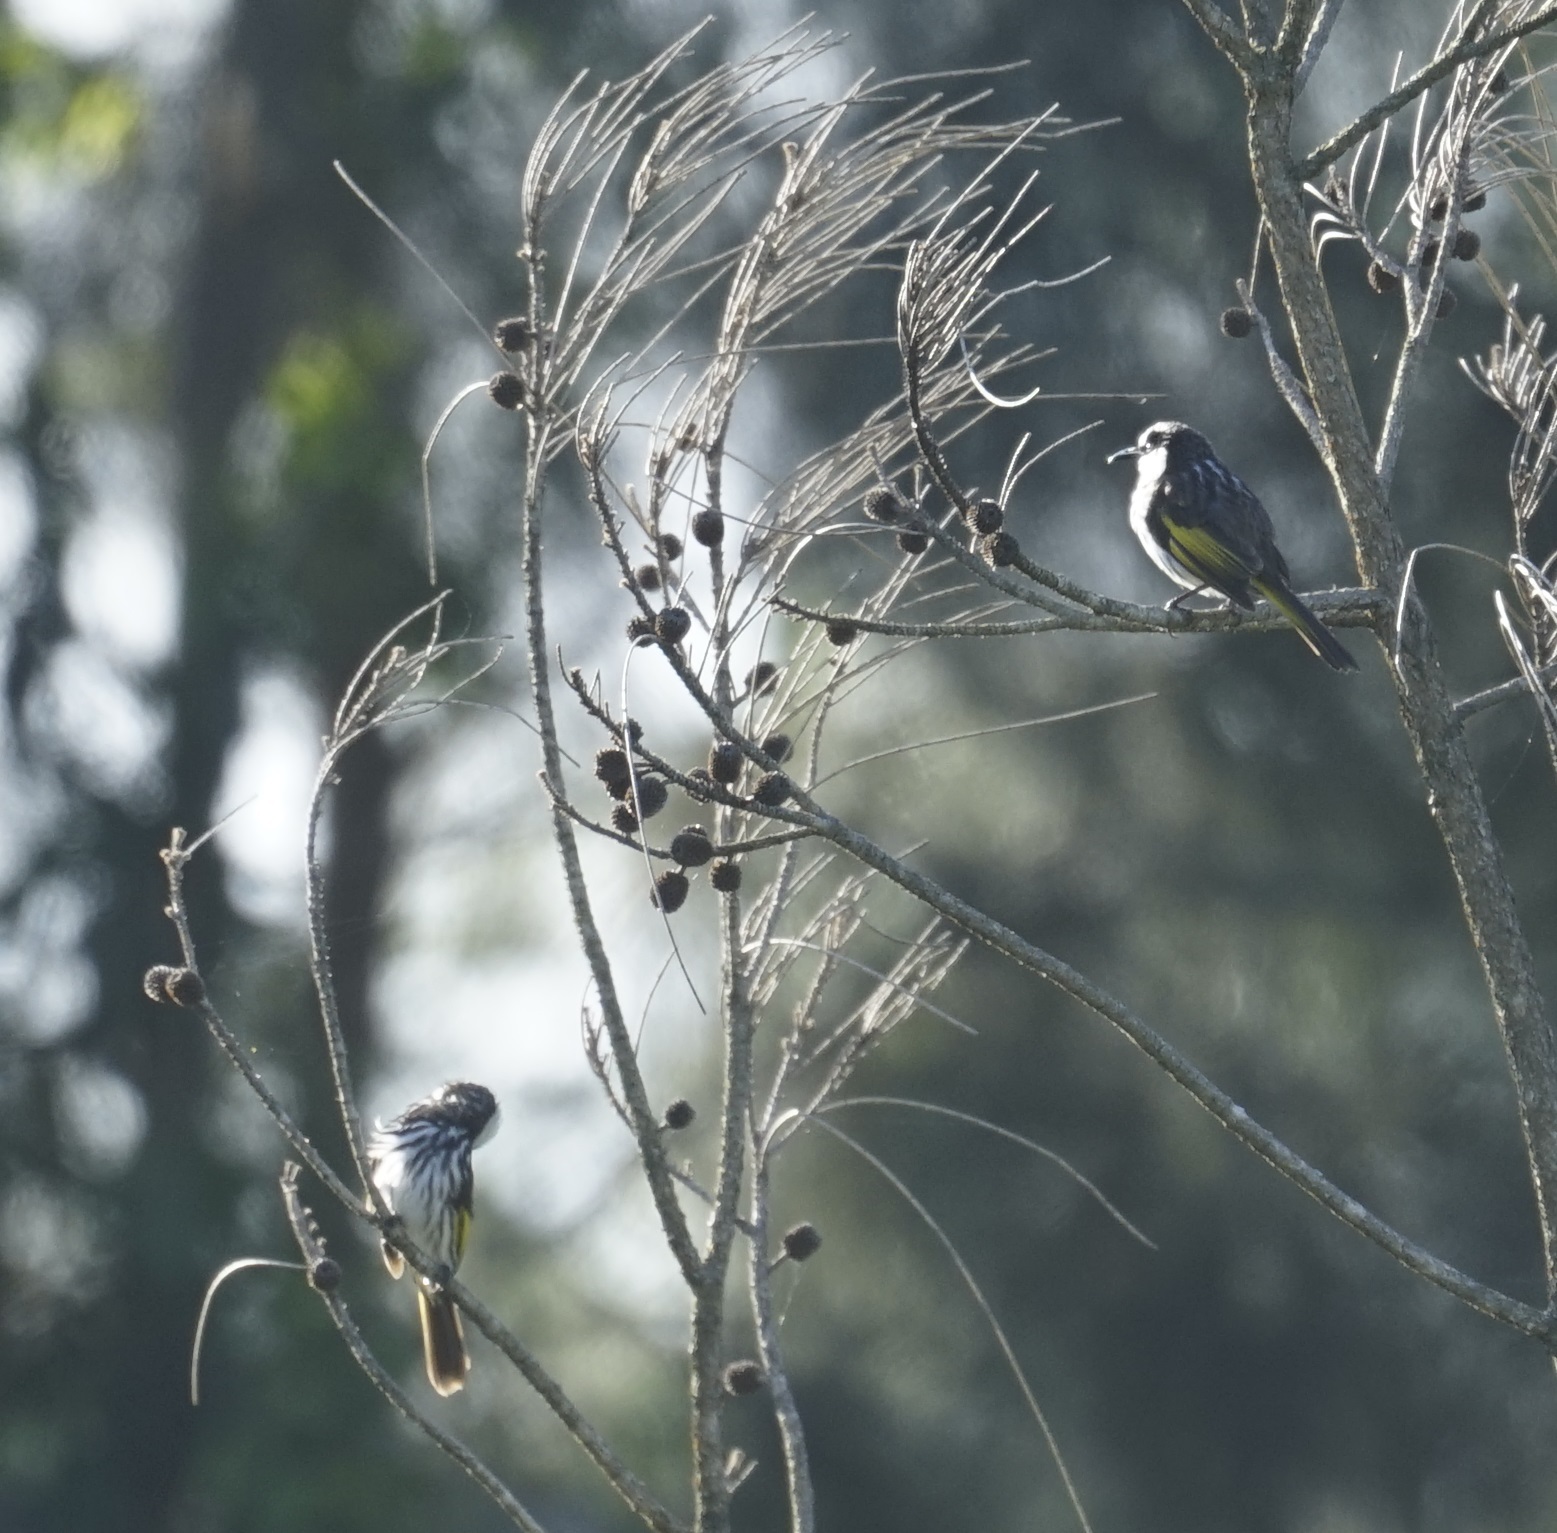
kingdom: Animalia
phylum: Chordata
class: Aves
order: Passeriformes
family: Meliphagidae
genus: Phylidonyris
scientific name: Phylidonyris niger
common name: White-cheeked honeyeater
